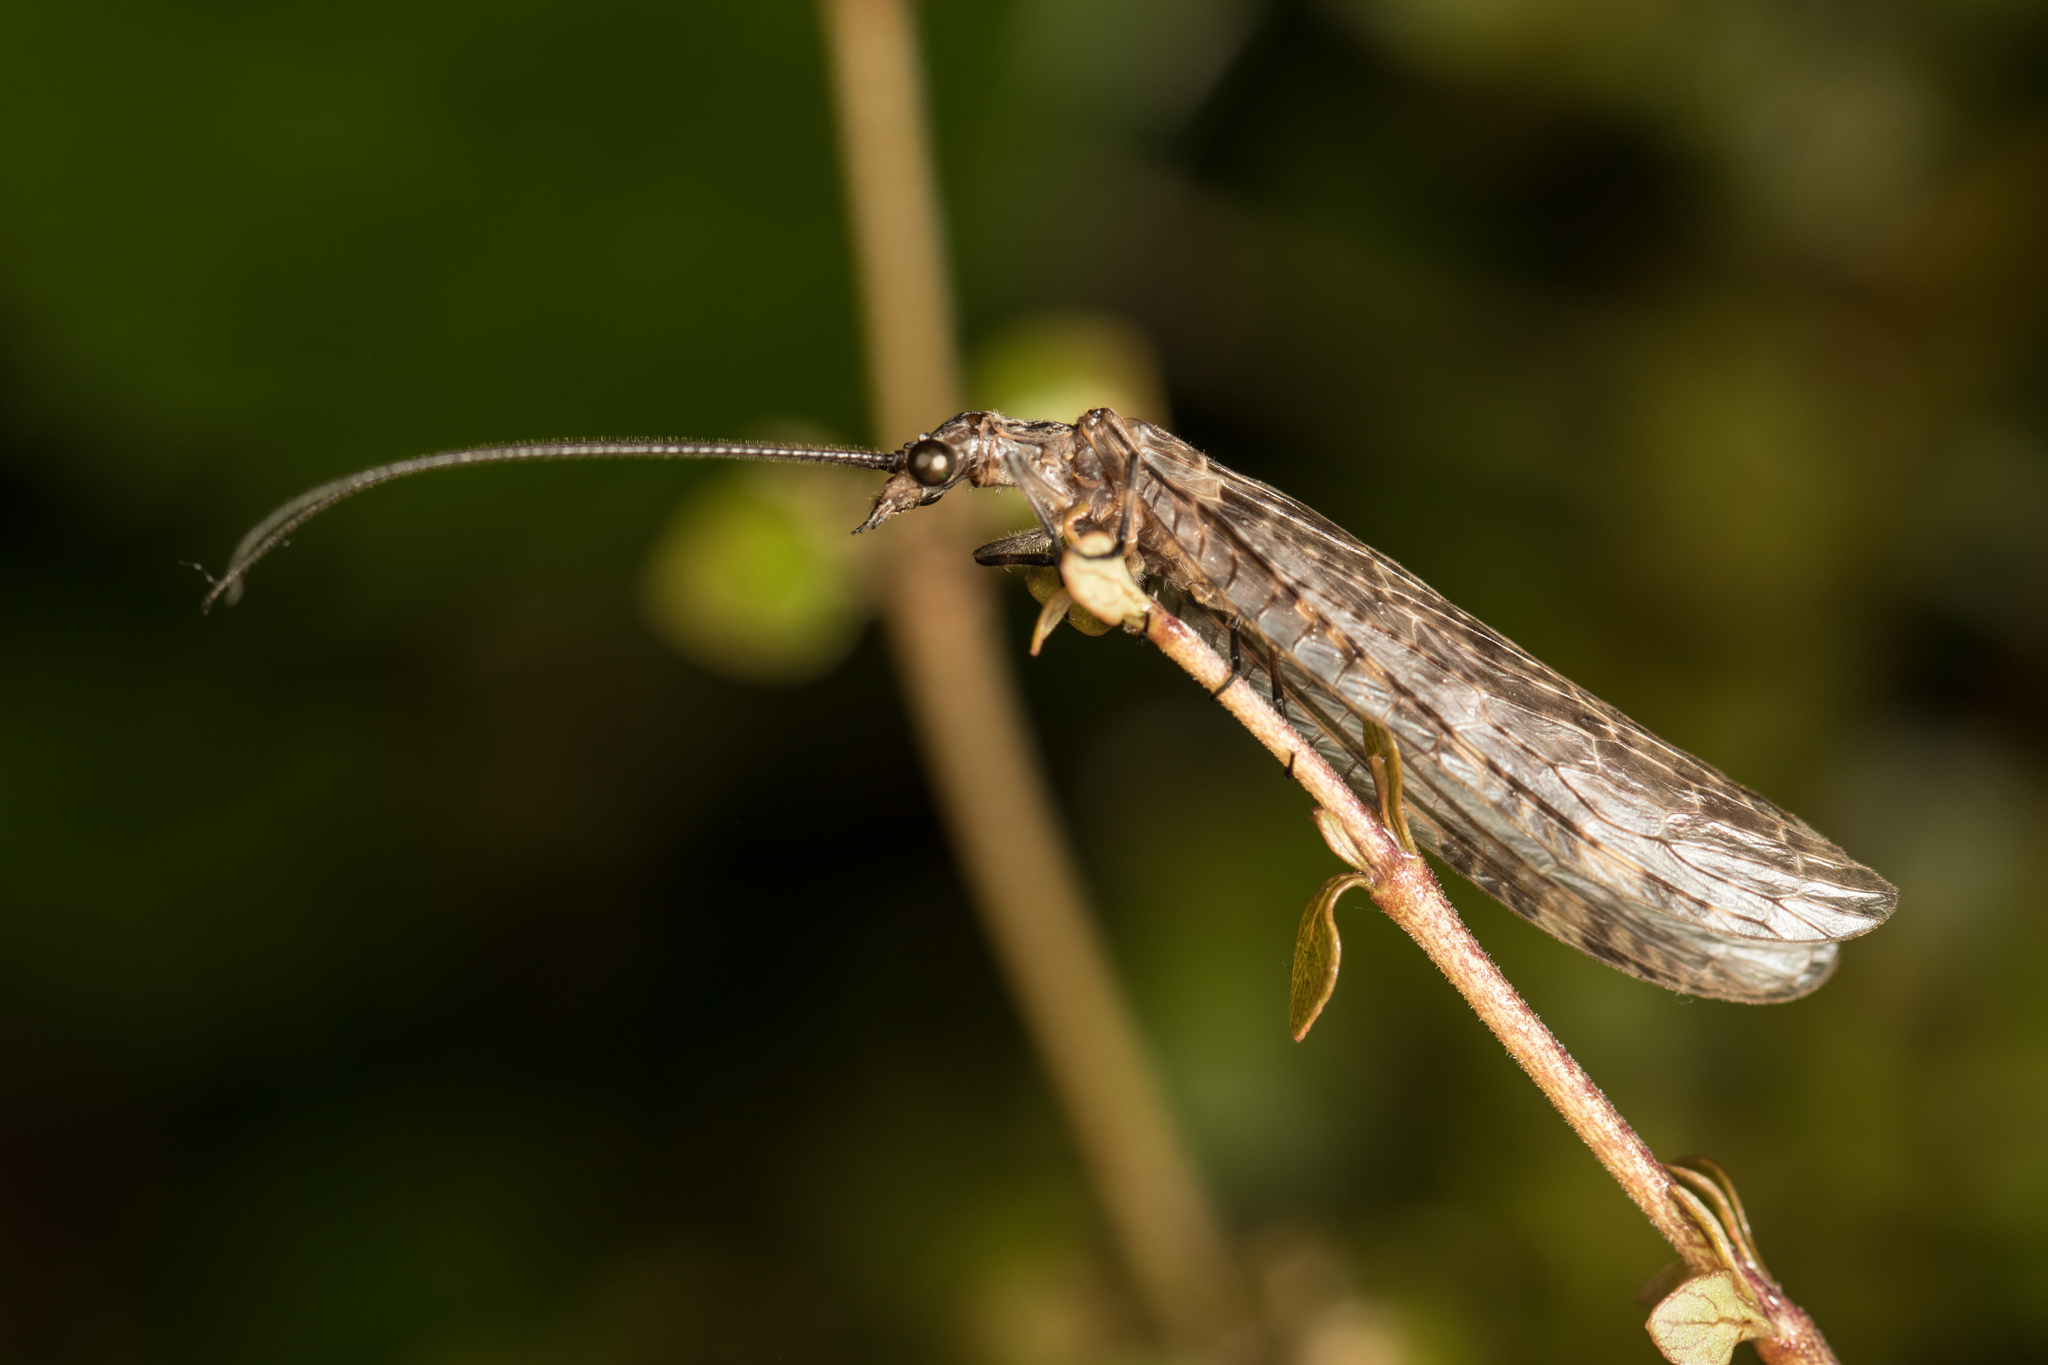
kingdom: Animalia
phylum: Arthropoda
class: Insecta
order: Megaloptera
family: Corydalidae
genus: Archichauliodes
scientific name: Archichauliodes diversus
